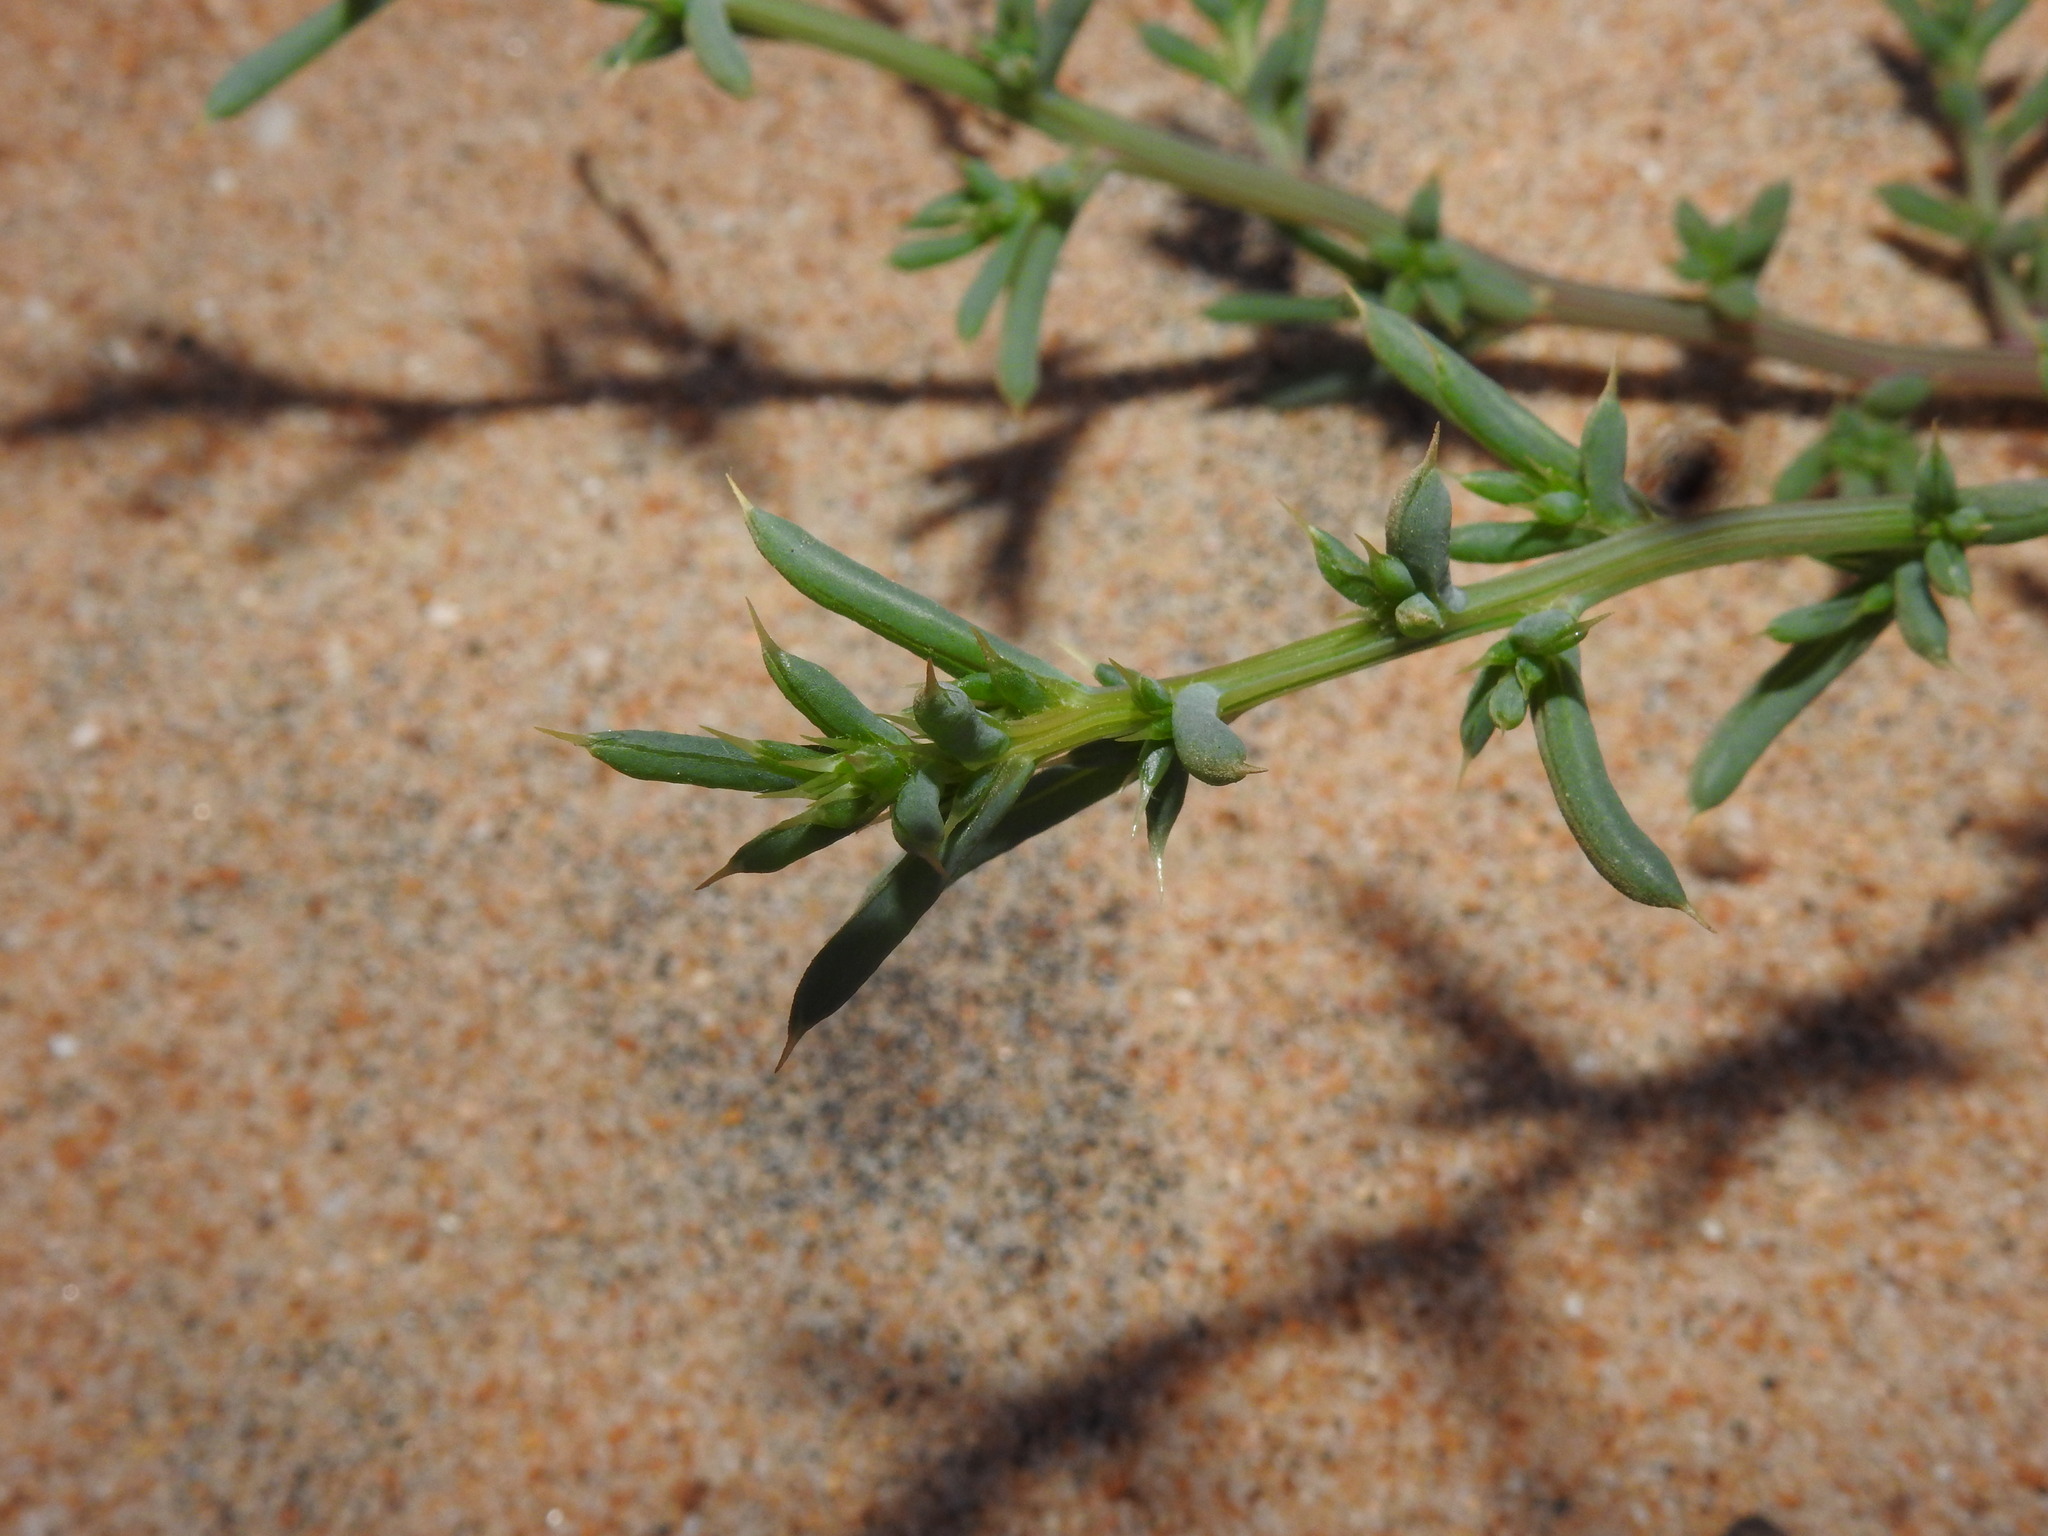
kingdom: Plantae
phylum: Tracheophyta
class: Magnoliopsida
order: Caryophyllales
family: Amaranthaceae
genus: Salsola
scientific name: Salsola kali
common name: Saltwort
